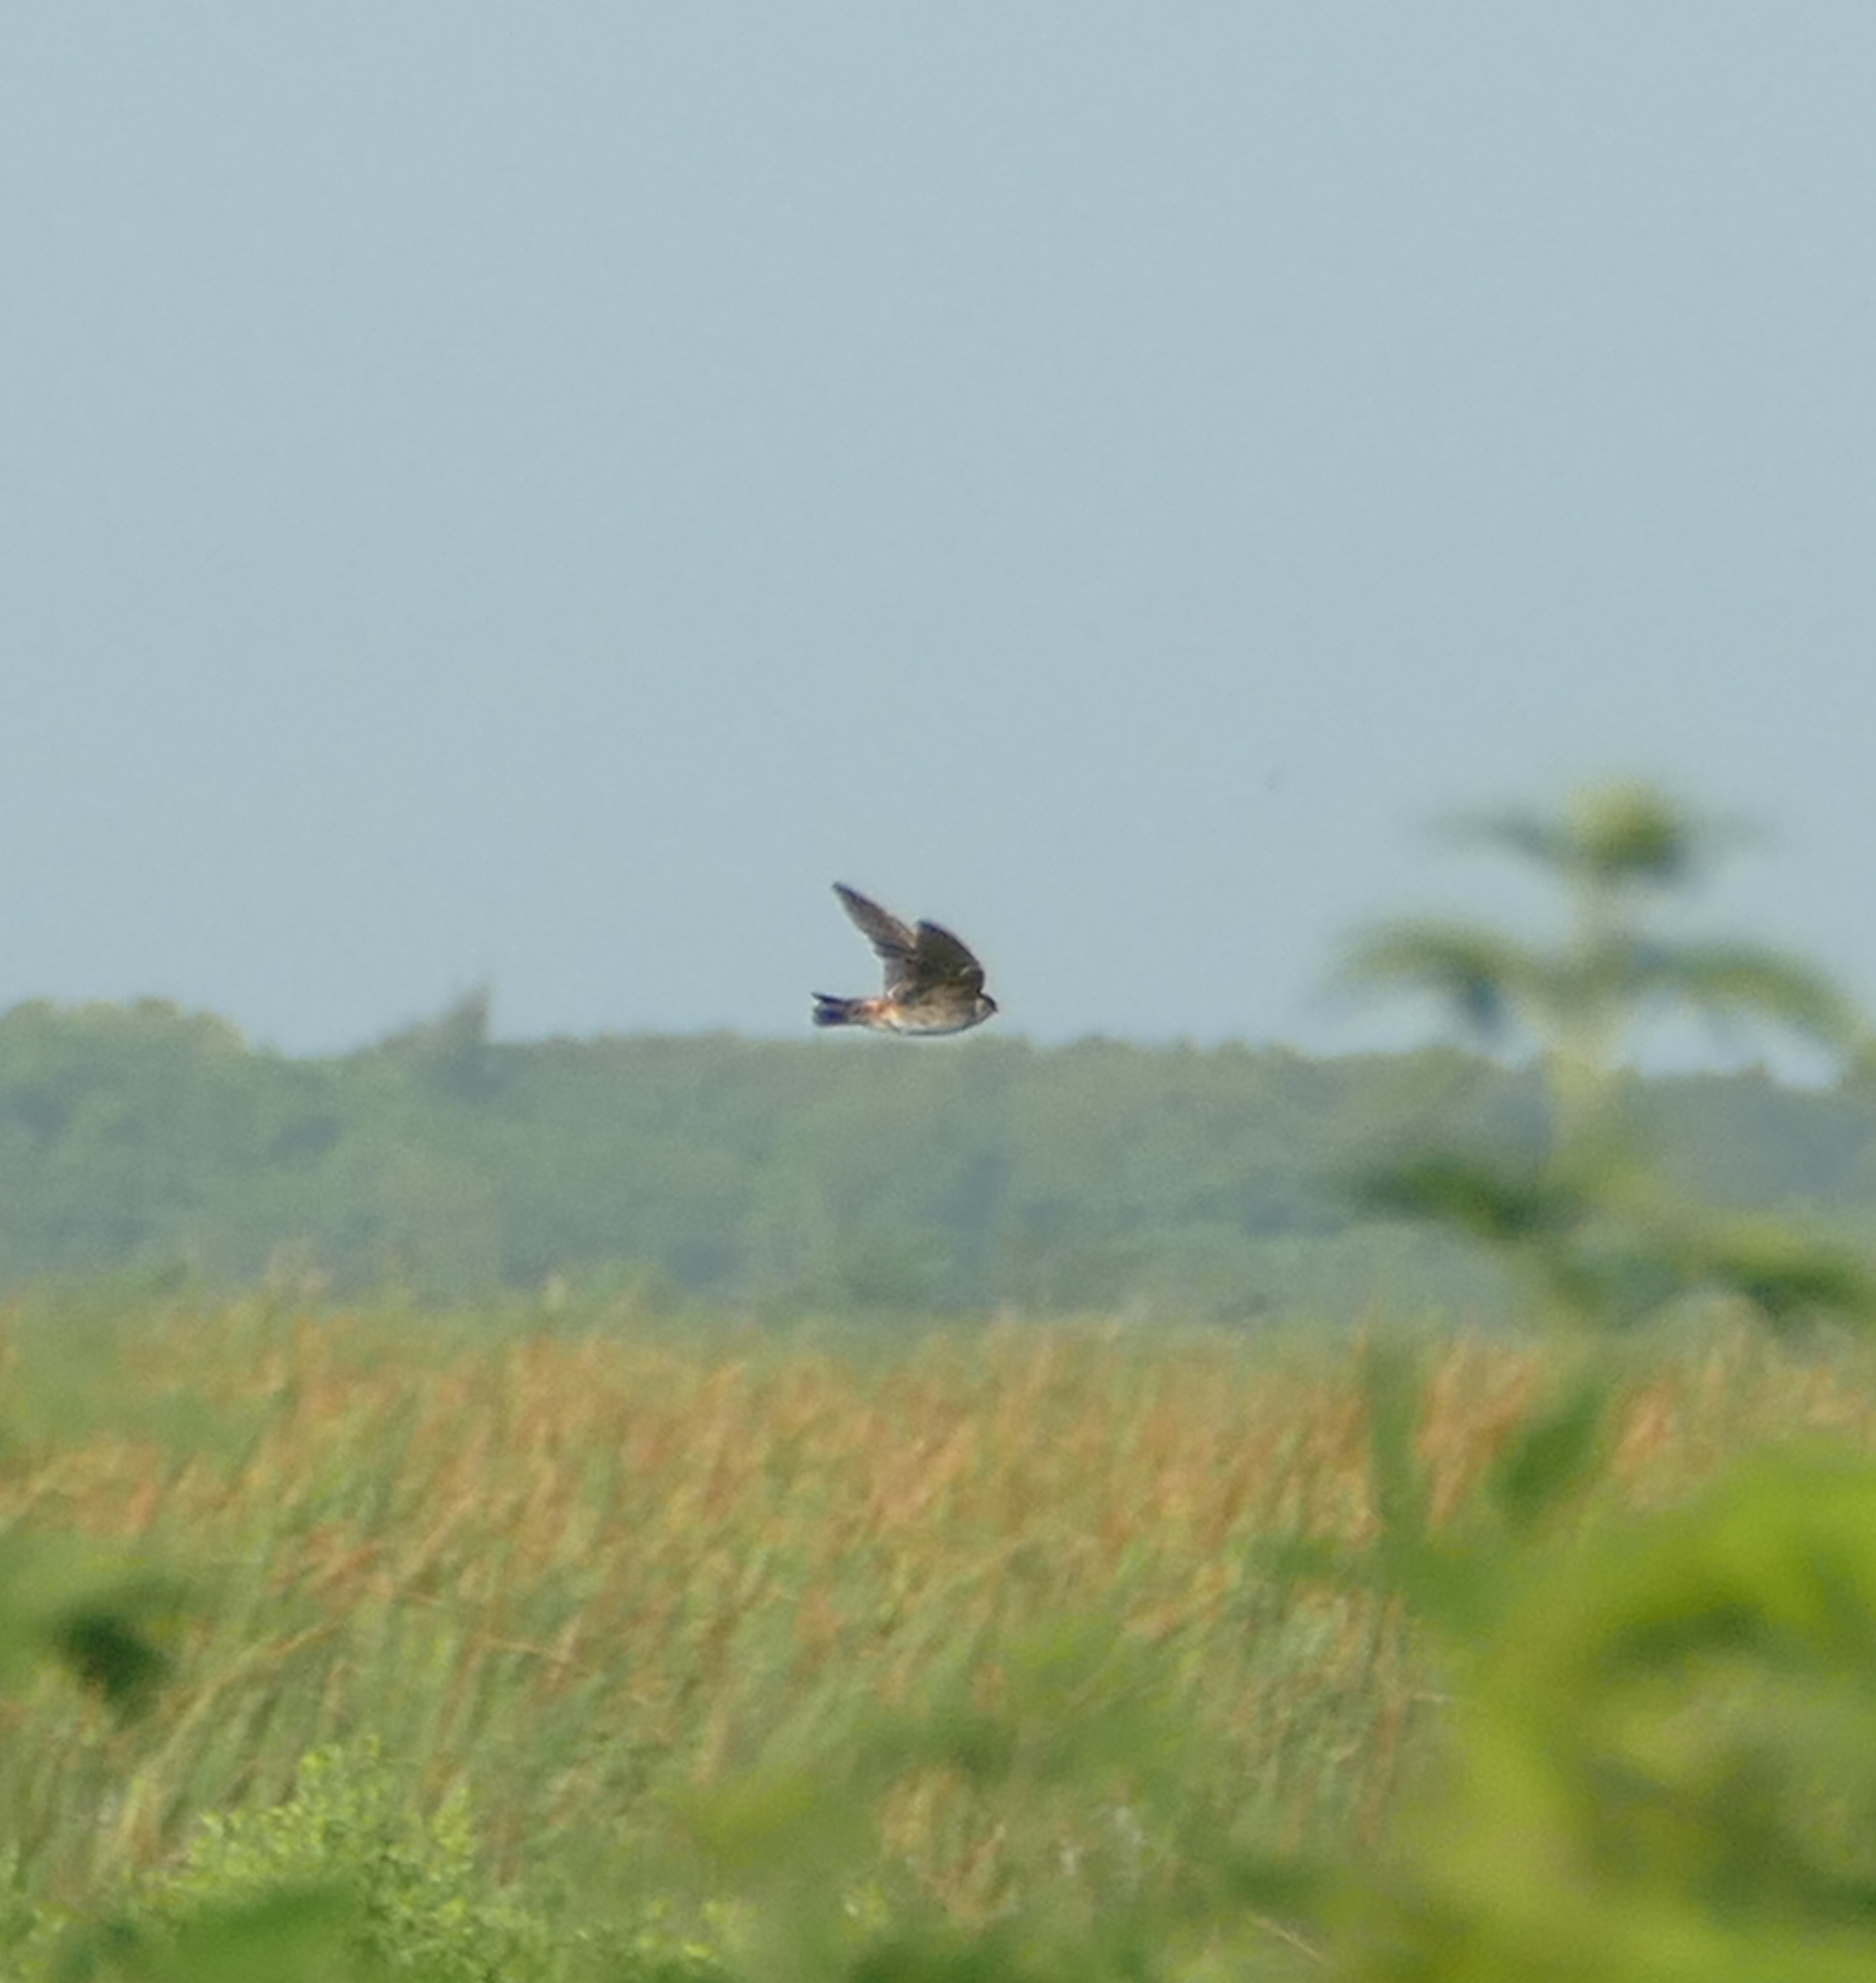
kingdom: Animalia
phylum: Chordata
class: Aves
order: Passeriformes
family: Hirundinidae
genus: Petrochelidon
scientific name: Petrochelidon fulva
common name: Cave swallow
